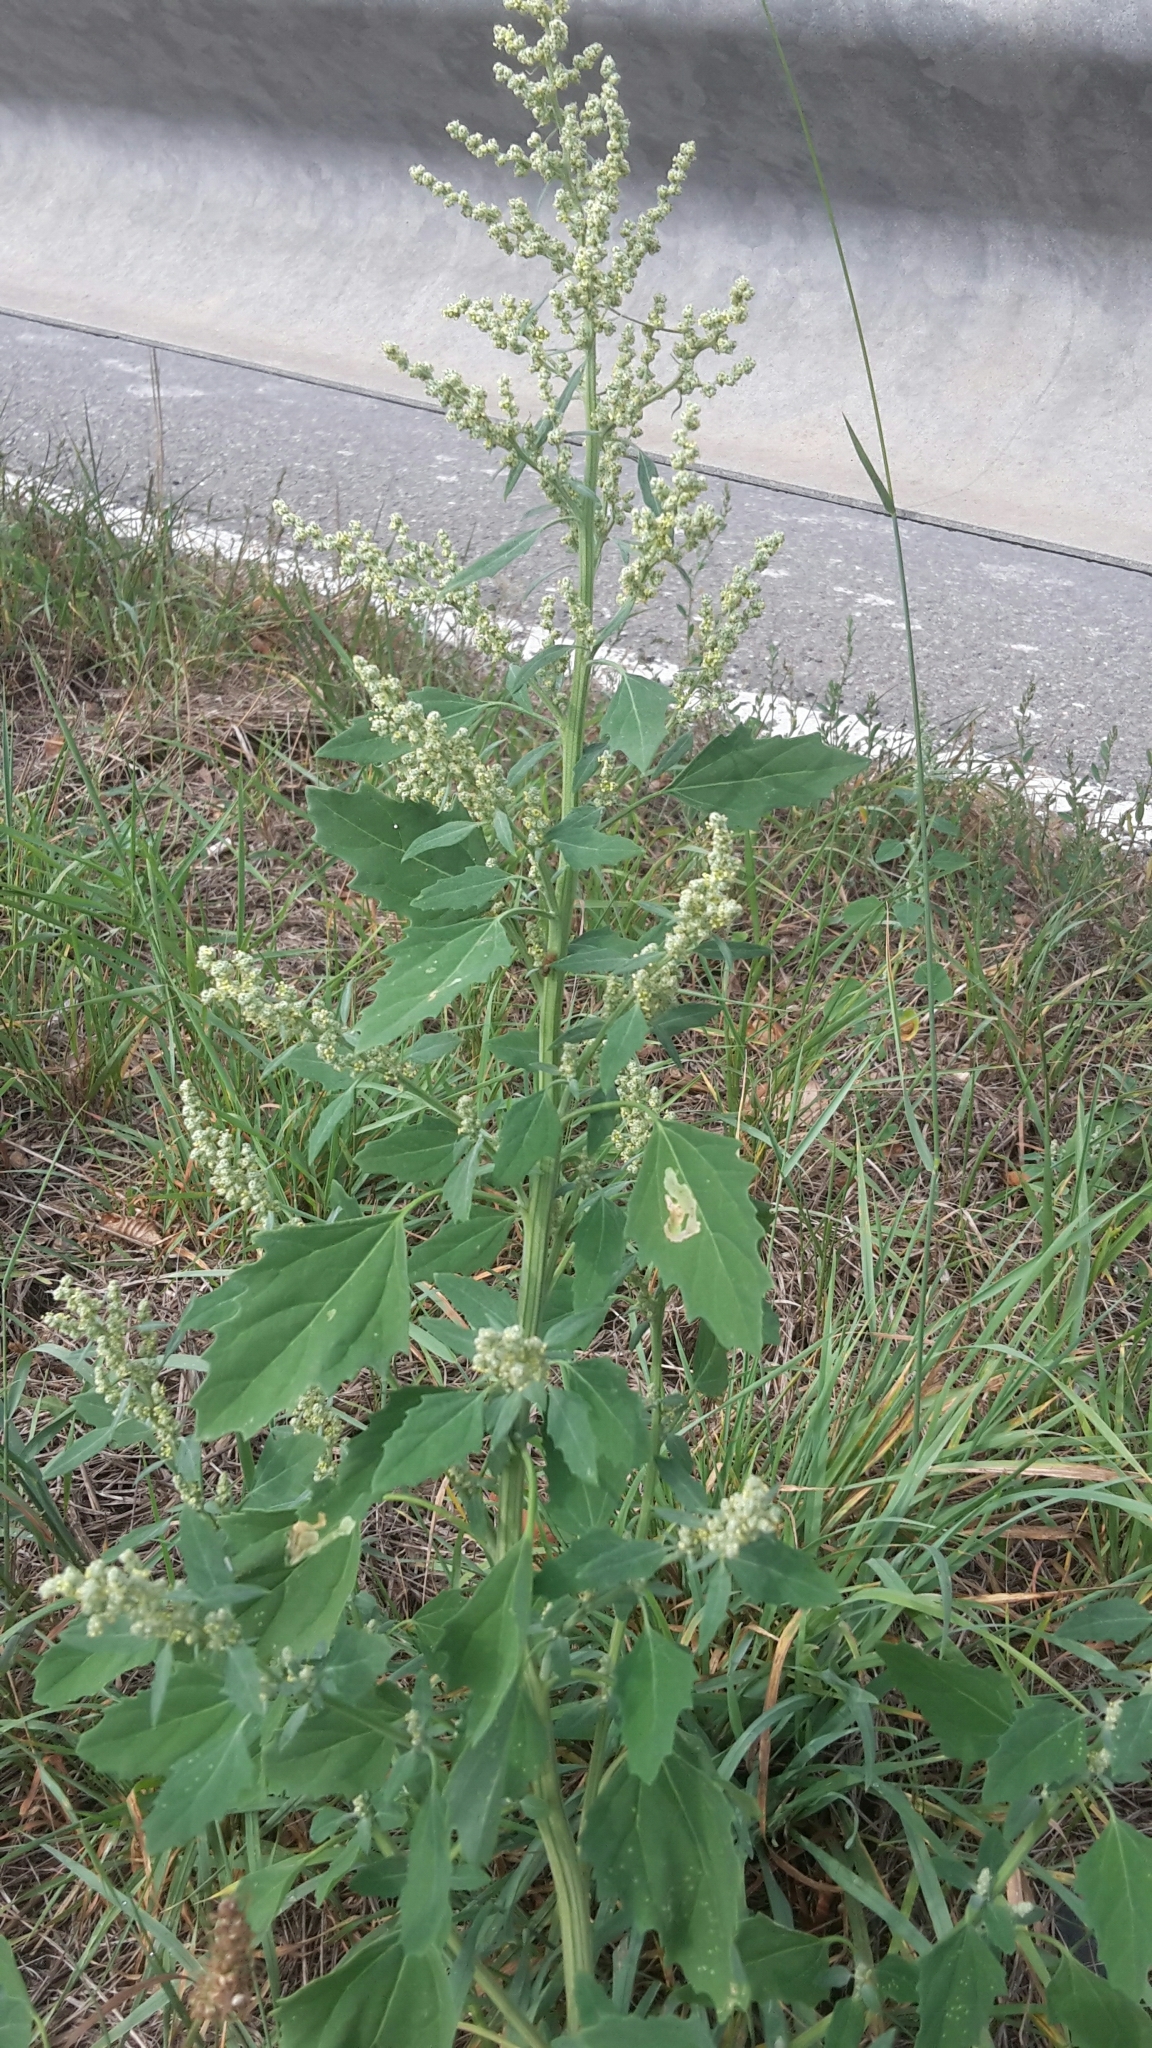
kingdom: Plantae
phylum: Tracheophyta
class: Magnoliopsida
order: Caryophyllales
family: Amaranthaceae
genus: Chenopodium
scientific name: Chenopodium album
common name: Fat-hen
